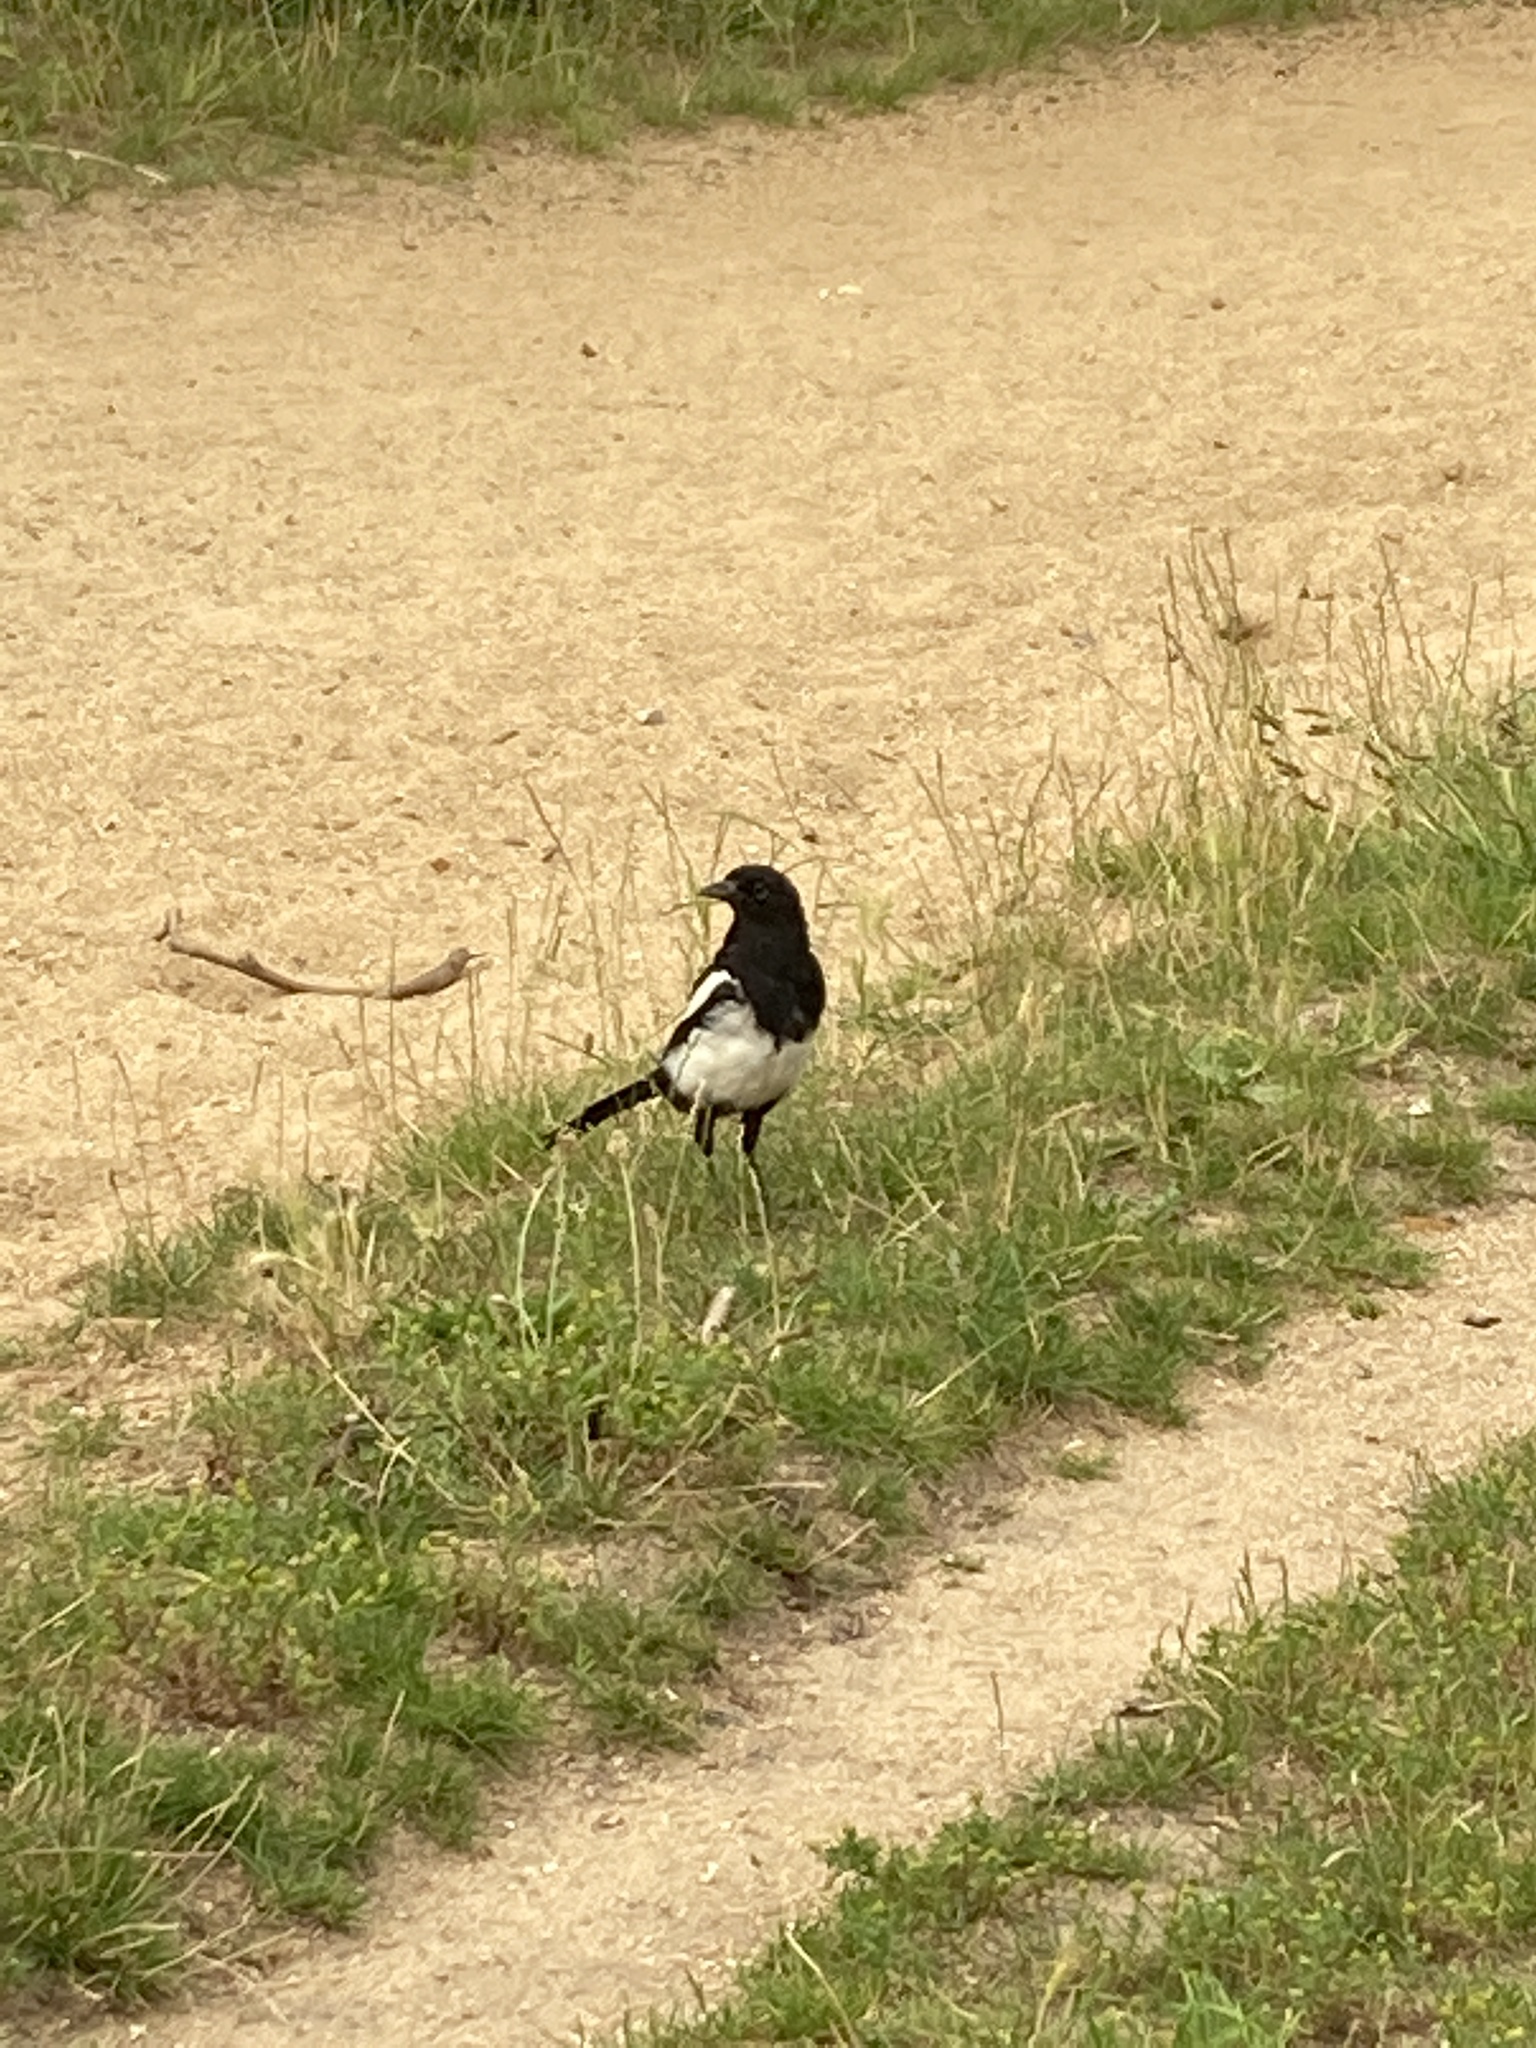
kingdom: Animalia
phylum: Chordata
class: Aves
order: Passeriformes
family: Corvidae
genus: Pica
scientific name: Pica pica
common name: Eurasian magpie
